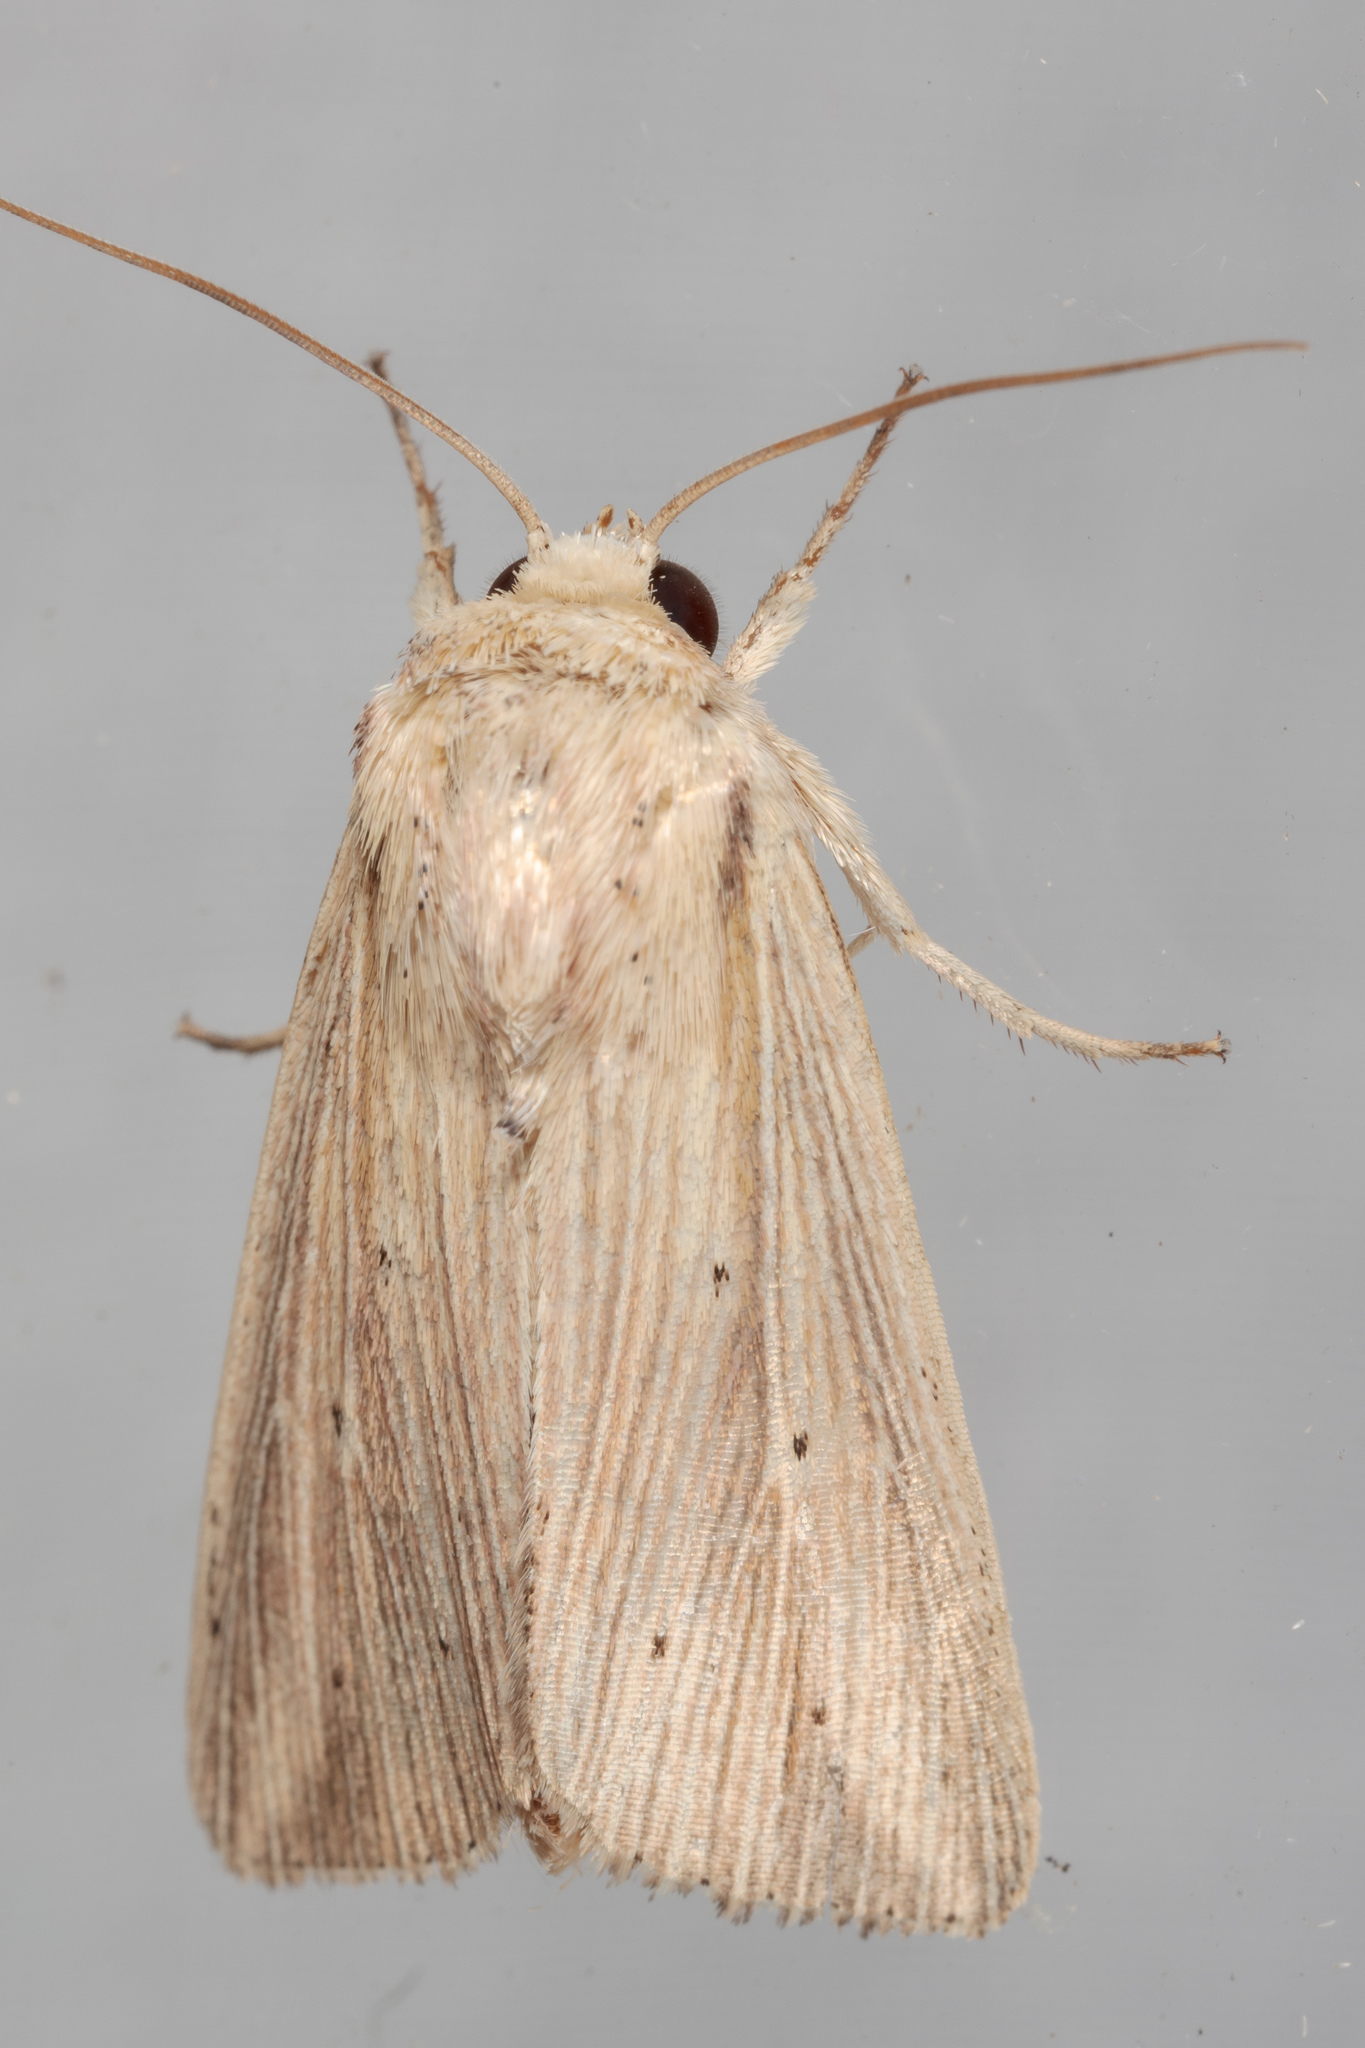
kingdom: Animalia
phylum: Arthropoda
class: Insecta
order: Lepidoptera
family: Noctuidae
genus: Leucania
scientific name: Leucania adjuta
